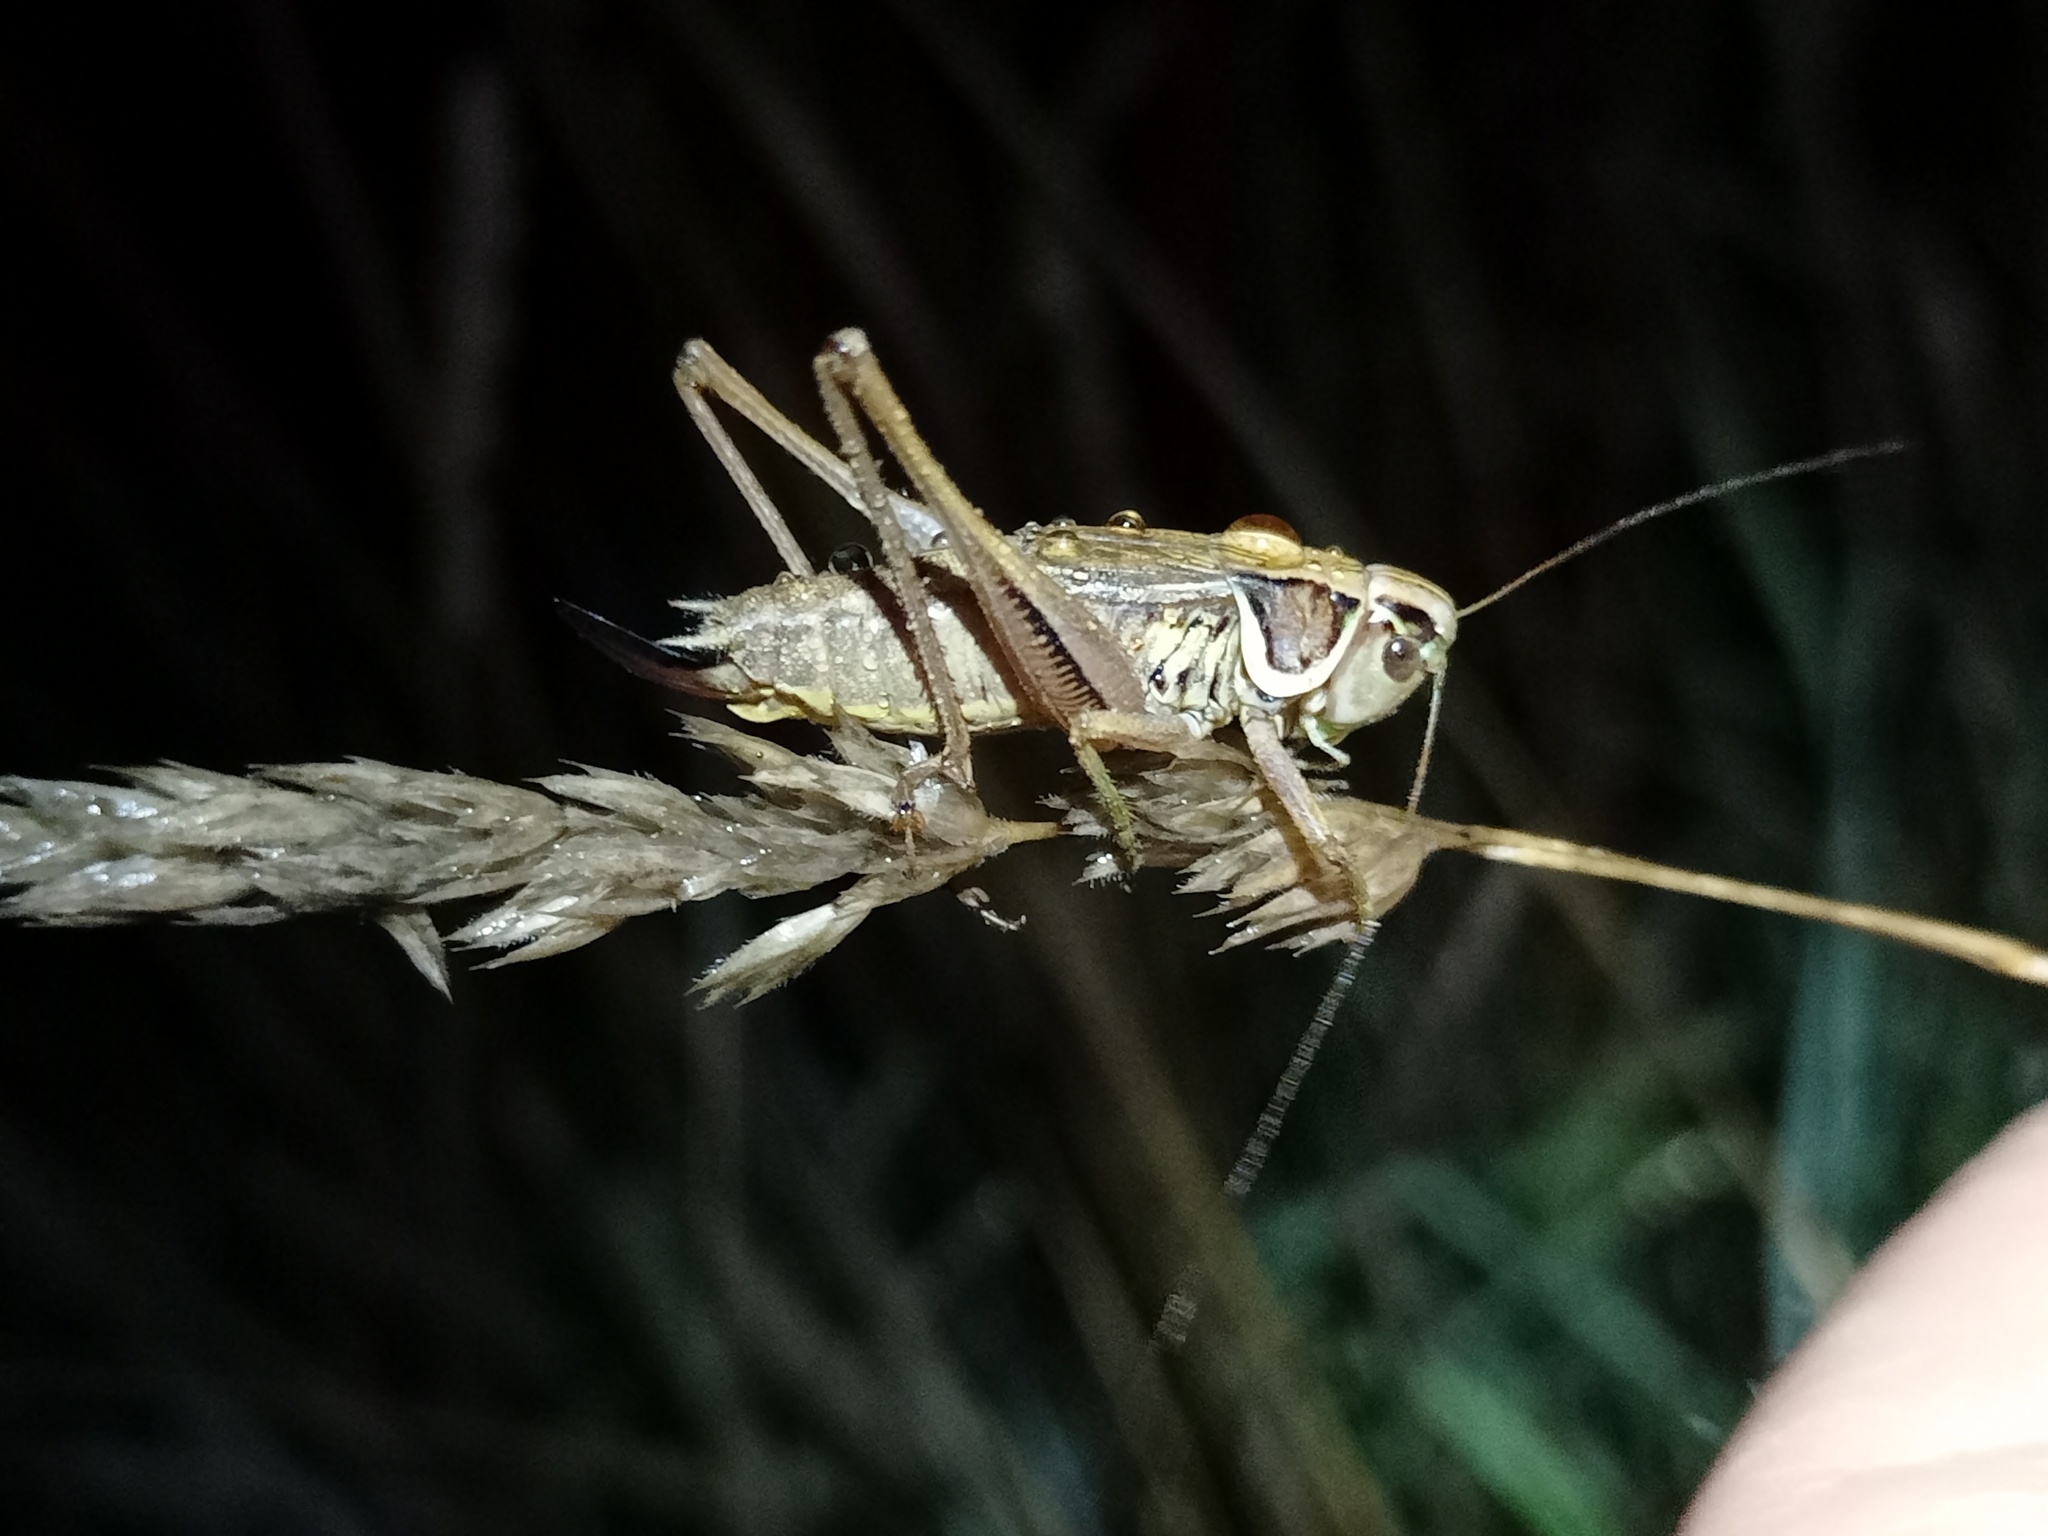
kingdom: Animalia
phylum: Arthropoda
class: Insecta
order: Orthoptera
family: Tettigoniidae
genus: Roeseliana
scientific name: Roeseliana roeselii
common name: Roesel's bush cricket
